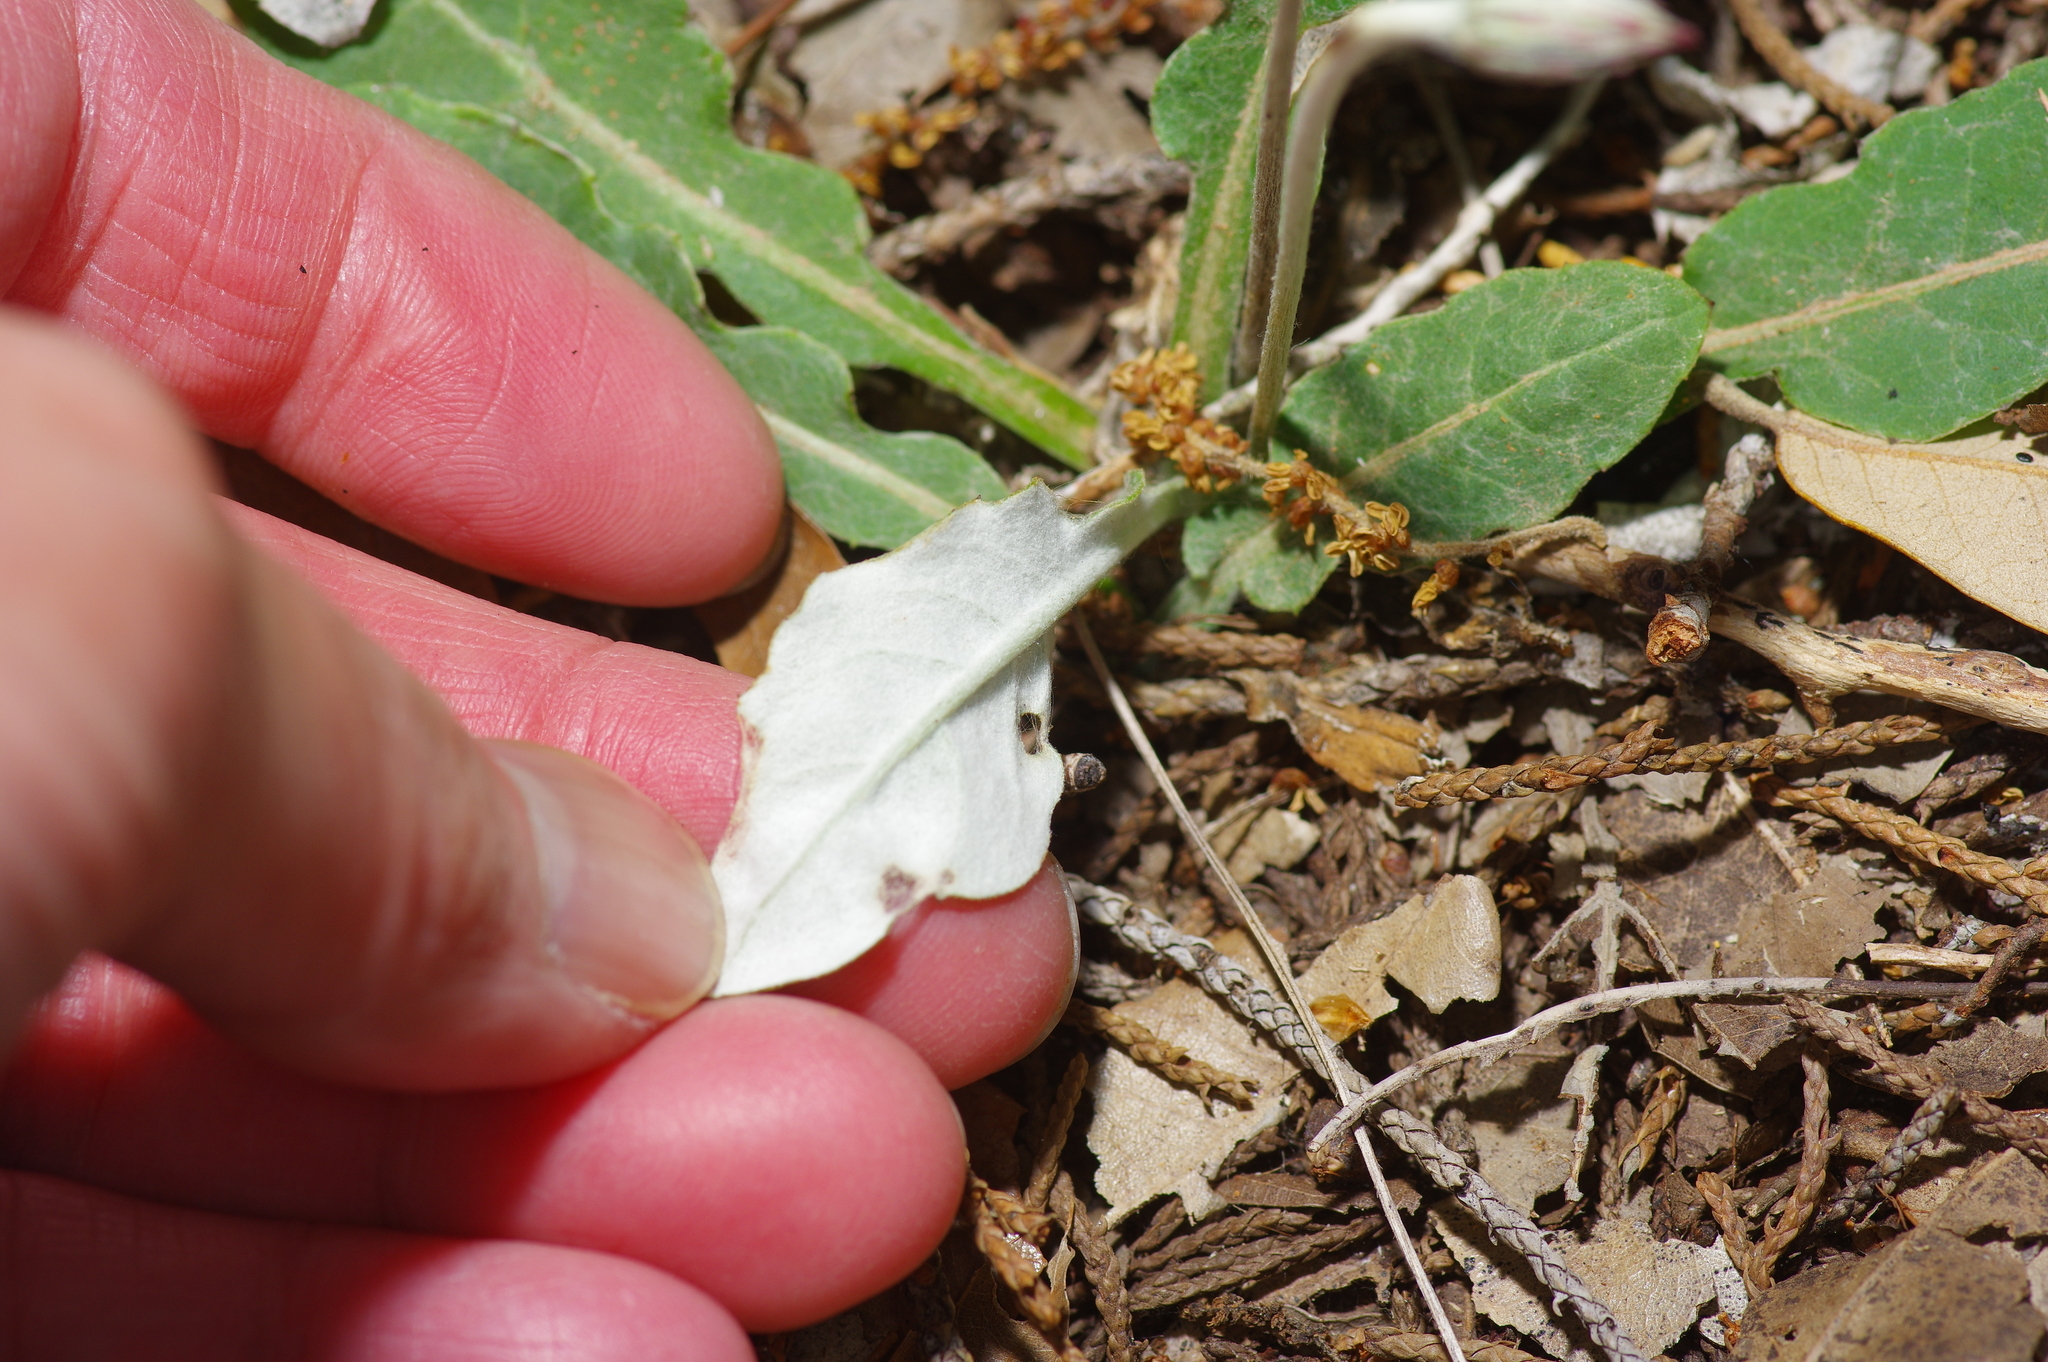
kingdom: Plantae
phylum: Tracheophyta
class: Magnoliopsida
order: Asterales
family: Asteraceae
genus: Chaptalia
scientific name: Chaptalia texana
